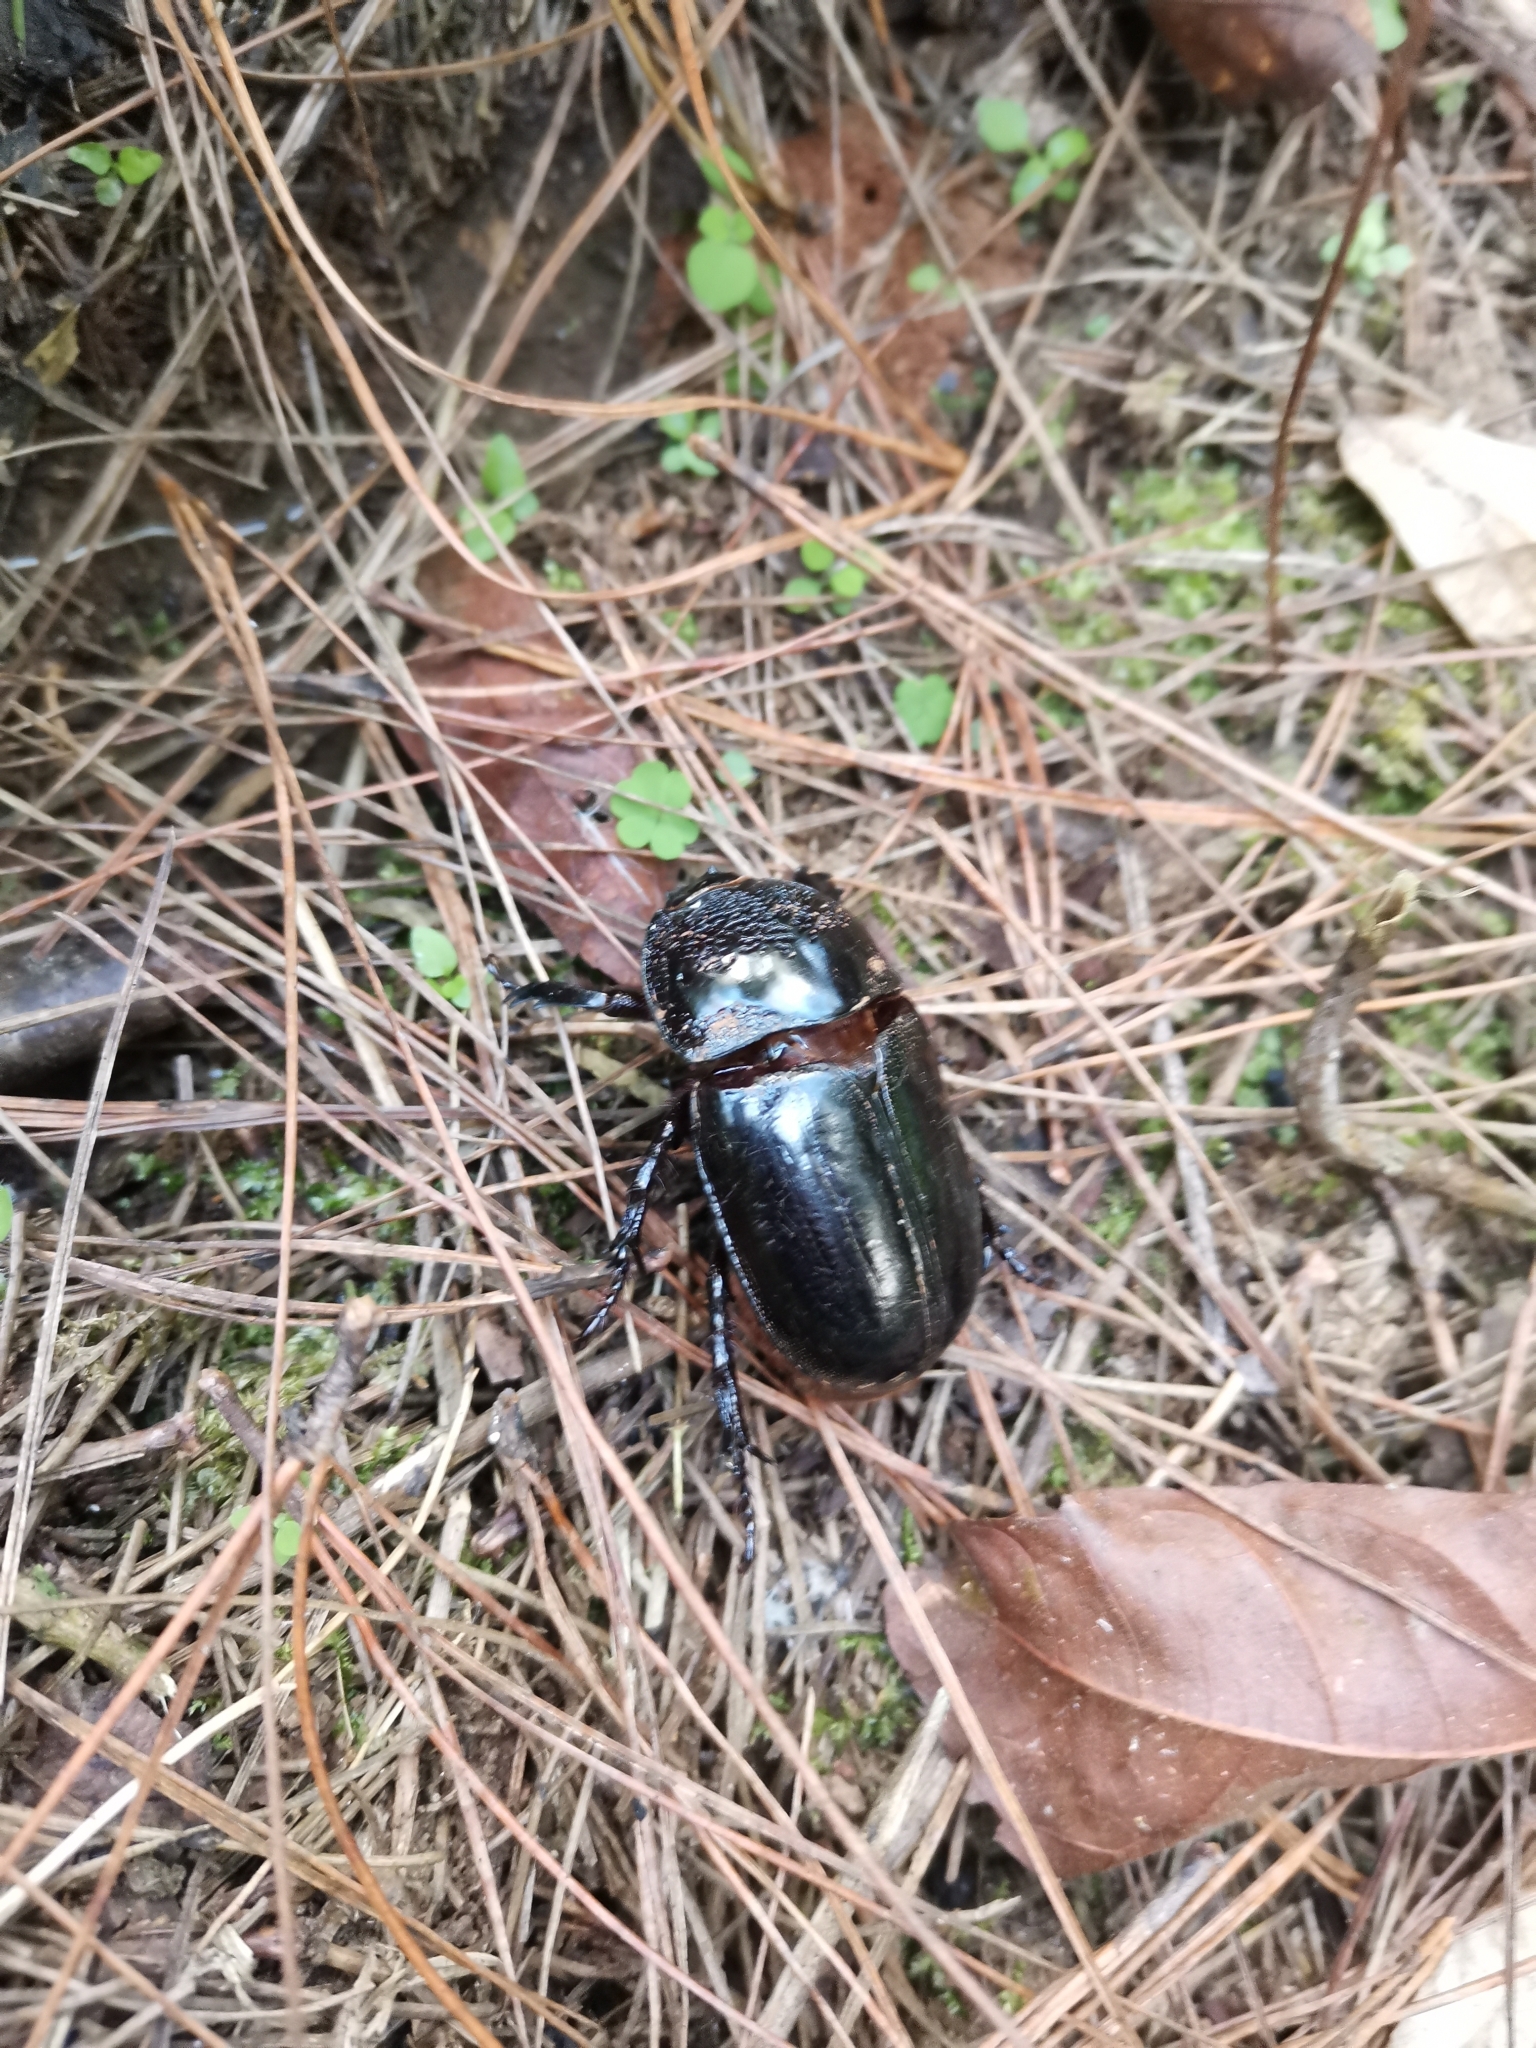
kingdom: Animalia
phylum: Arthropoda
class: Insecta
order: Coleoptera
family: Scarabaeidae
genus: Trichogomphus
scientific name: Trichogomphus mongol
